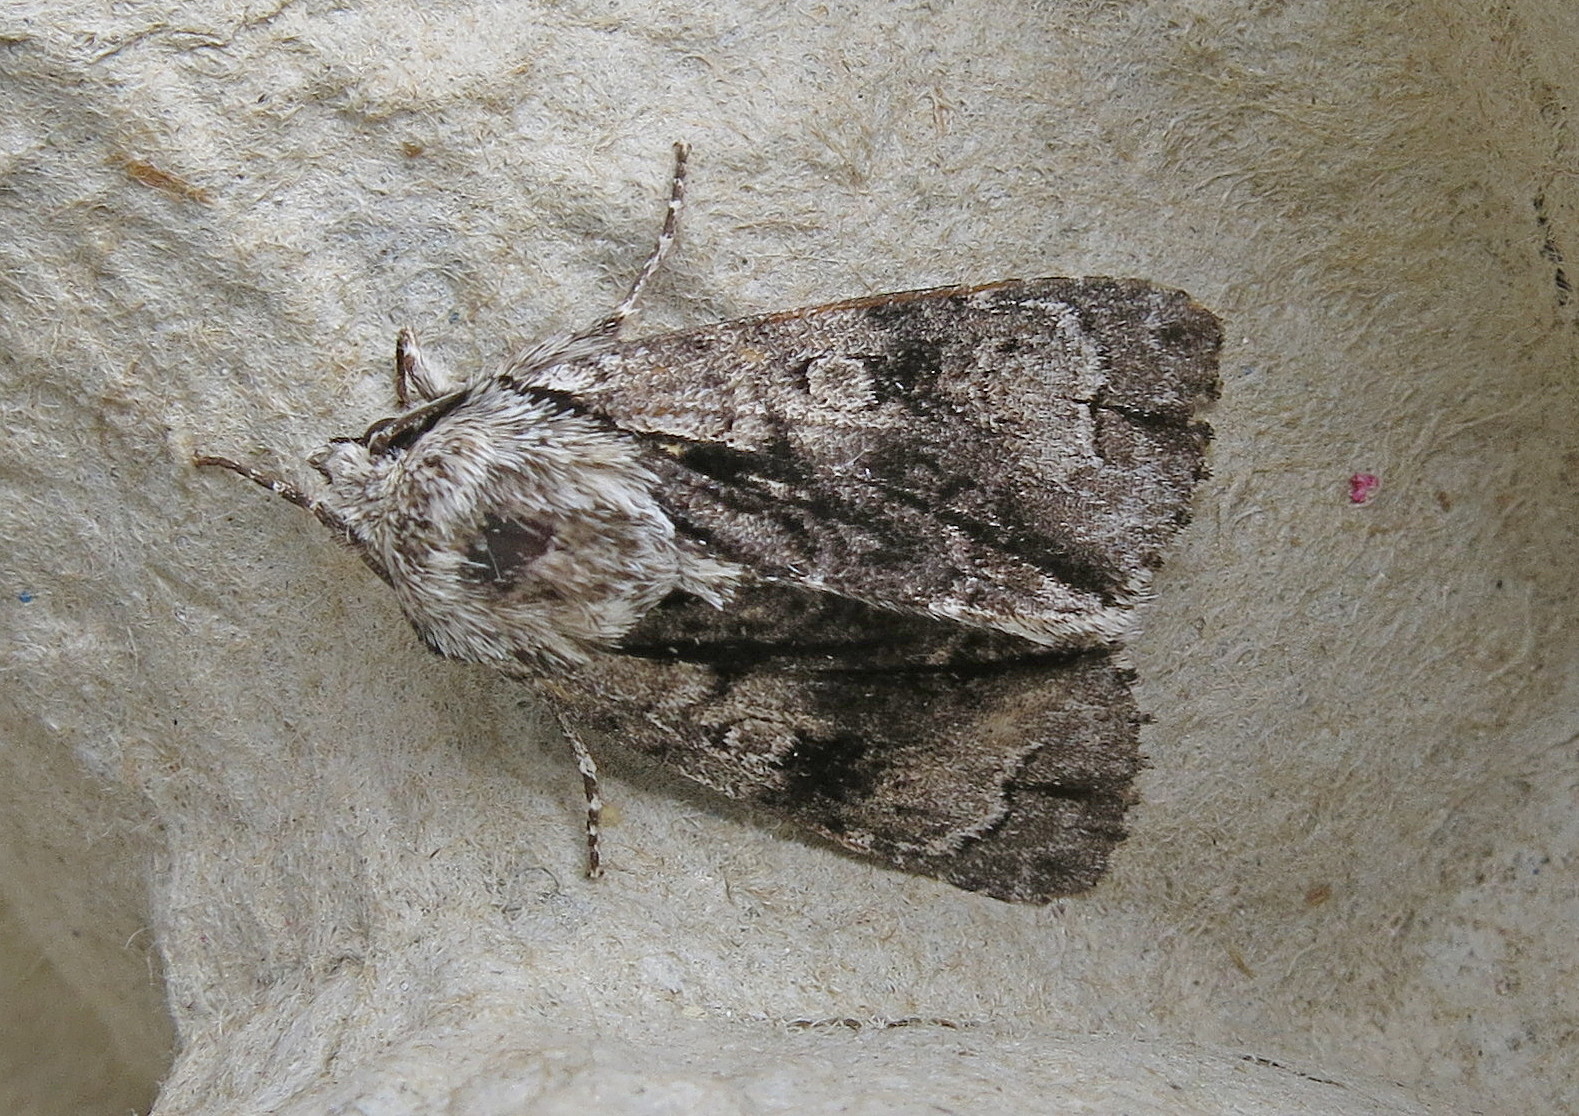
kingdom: Animalia
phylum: Arthropoda
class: Insecta
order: Lepidoptera
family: Noctuidae
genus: Acronicta
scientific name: Acronicta alni
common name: Alder moth
